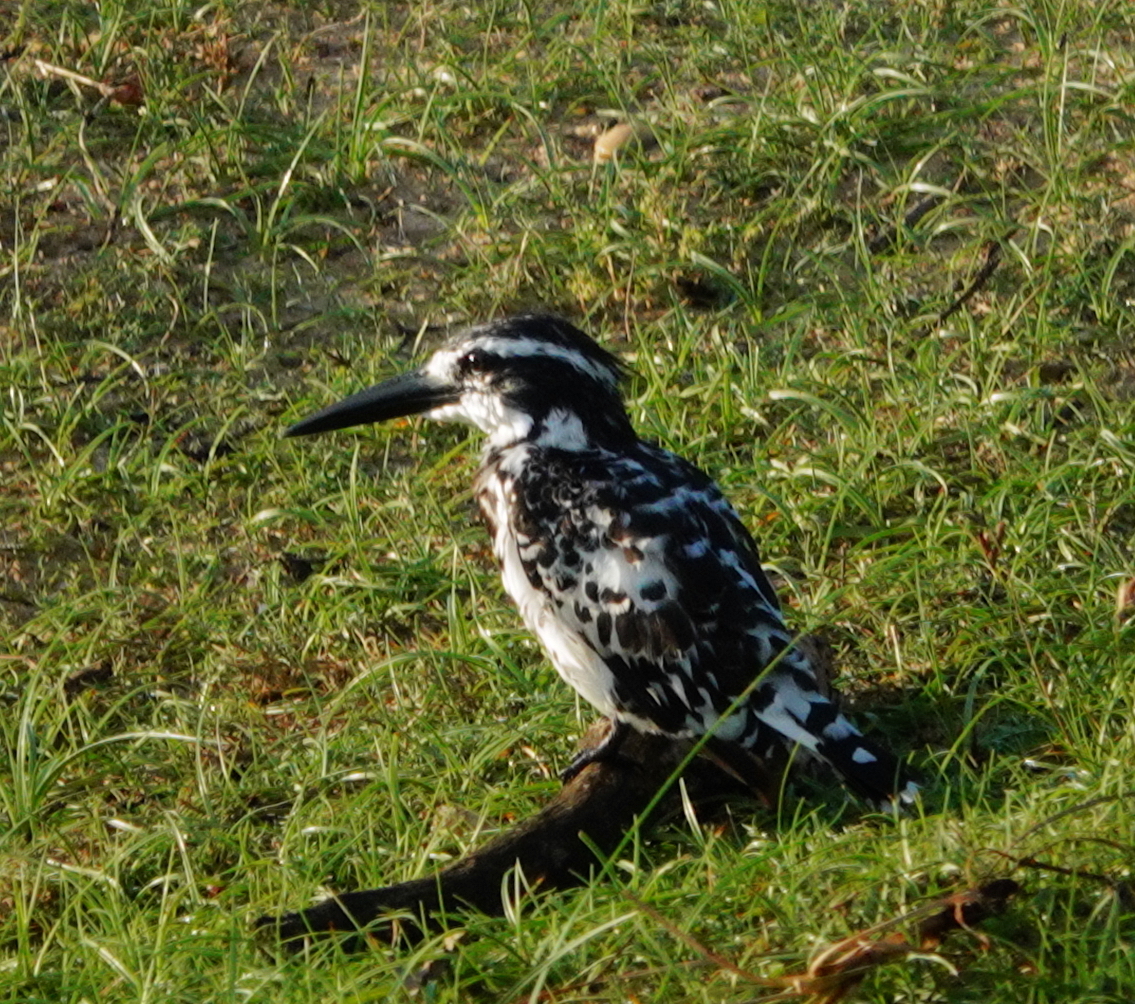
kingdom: Animalia
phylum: Chordata
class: Aves
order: Coraciiformes
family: Alcedinidae
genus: Ceryle
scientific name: Ceryle rudis
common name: Pied kingfisher
